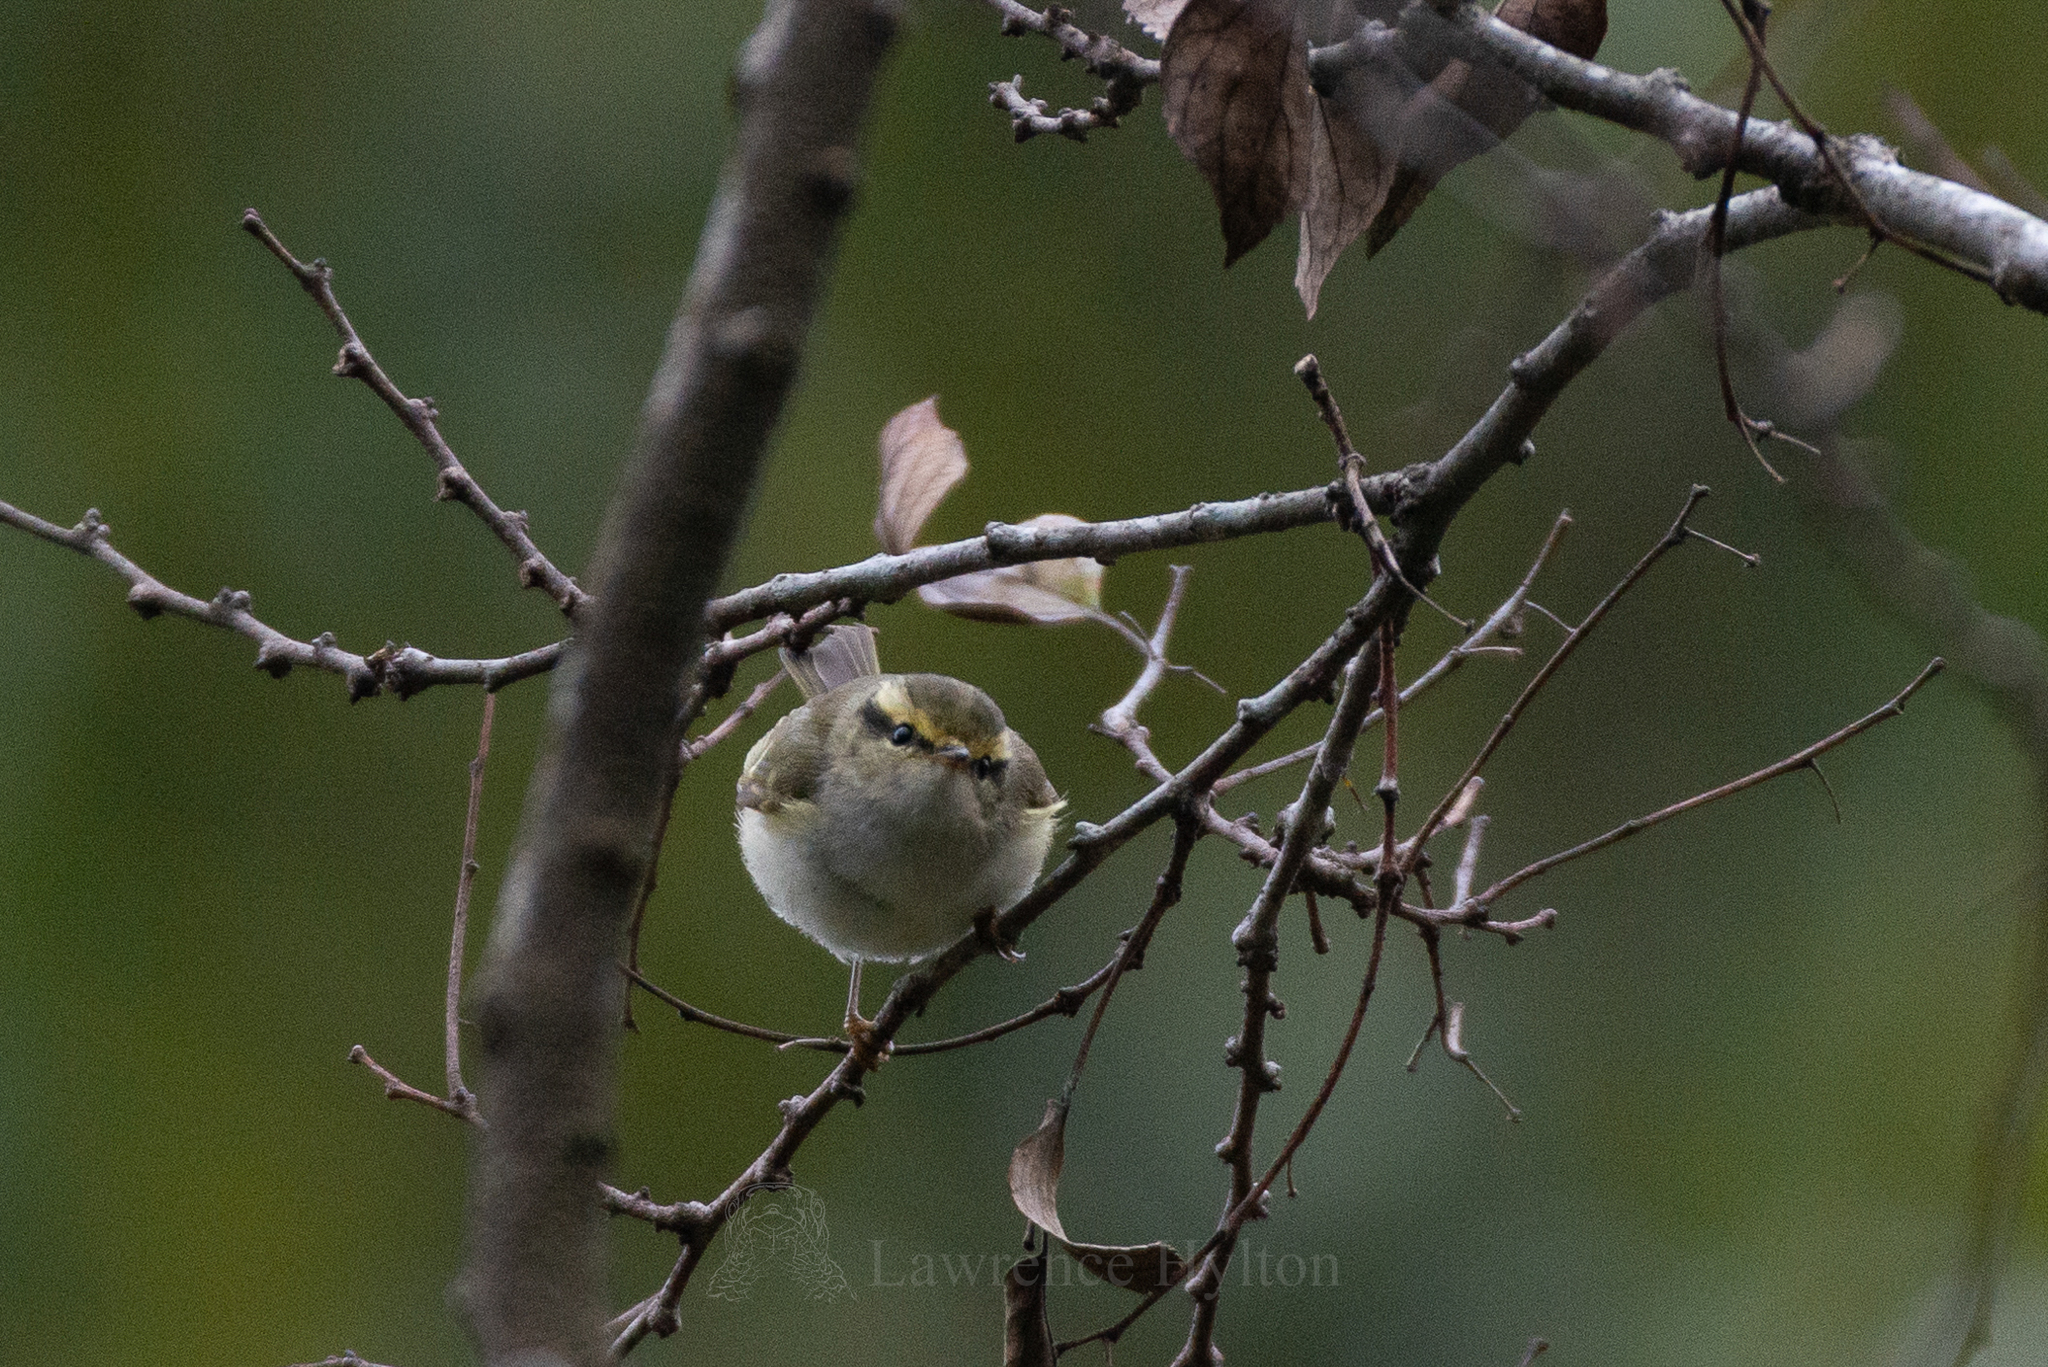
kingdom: Animalia
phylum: Chordata
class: Aves
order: Passeriformes
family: Phylloscopidae
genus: Phylloscopus
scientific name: Phylloscopus proregulus
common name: Pallas's leaf warbler
